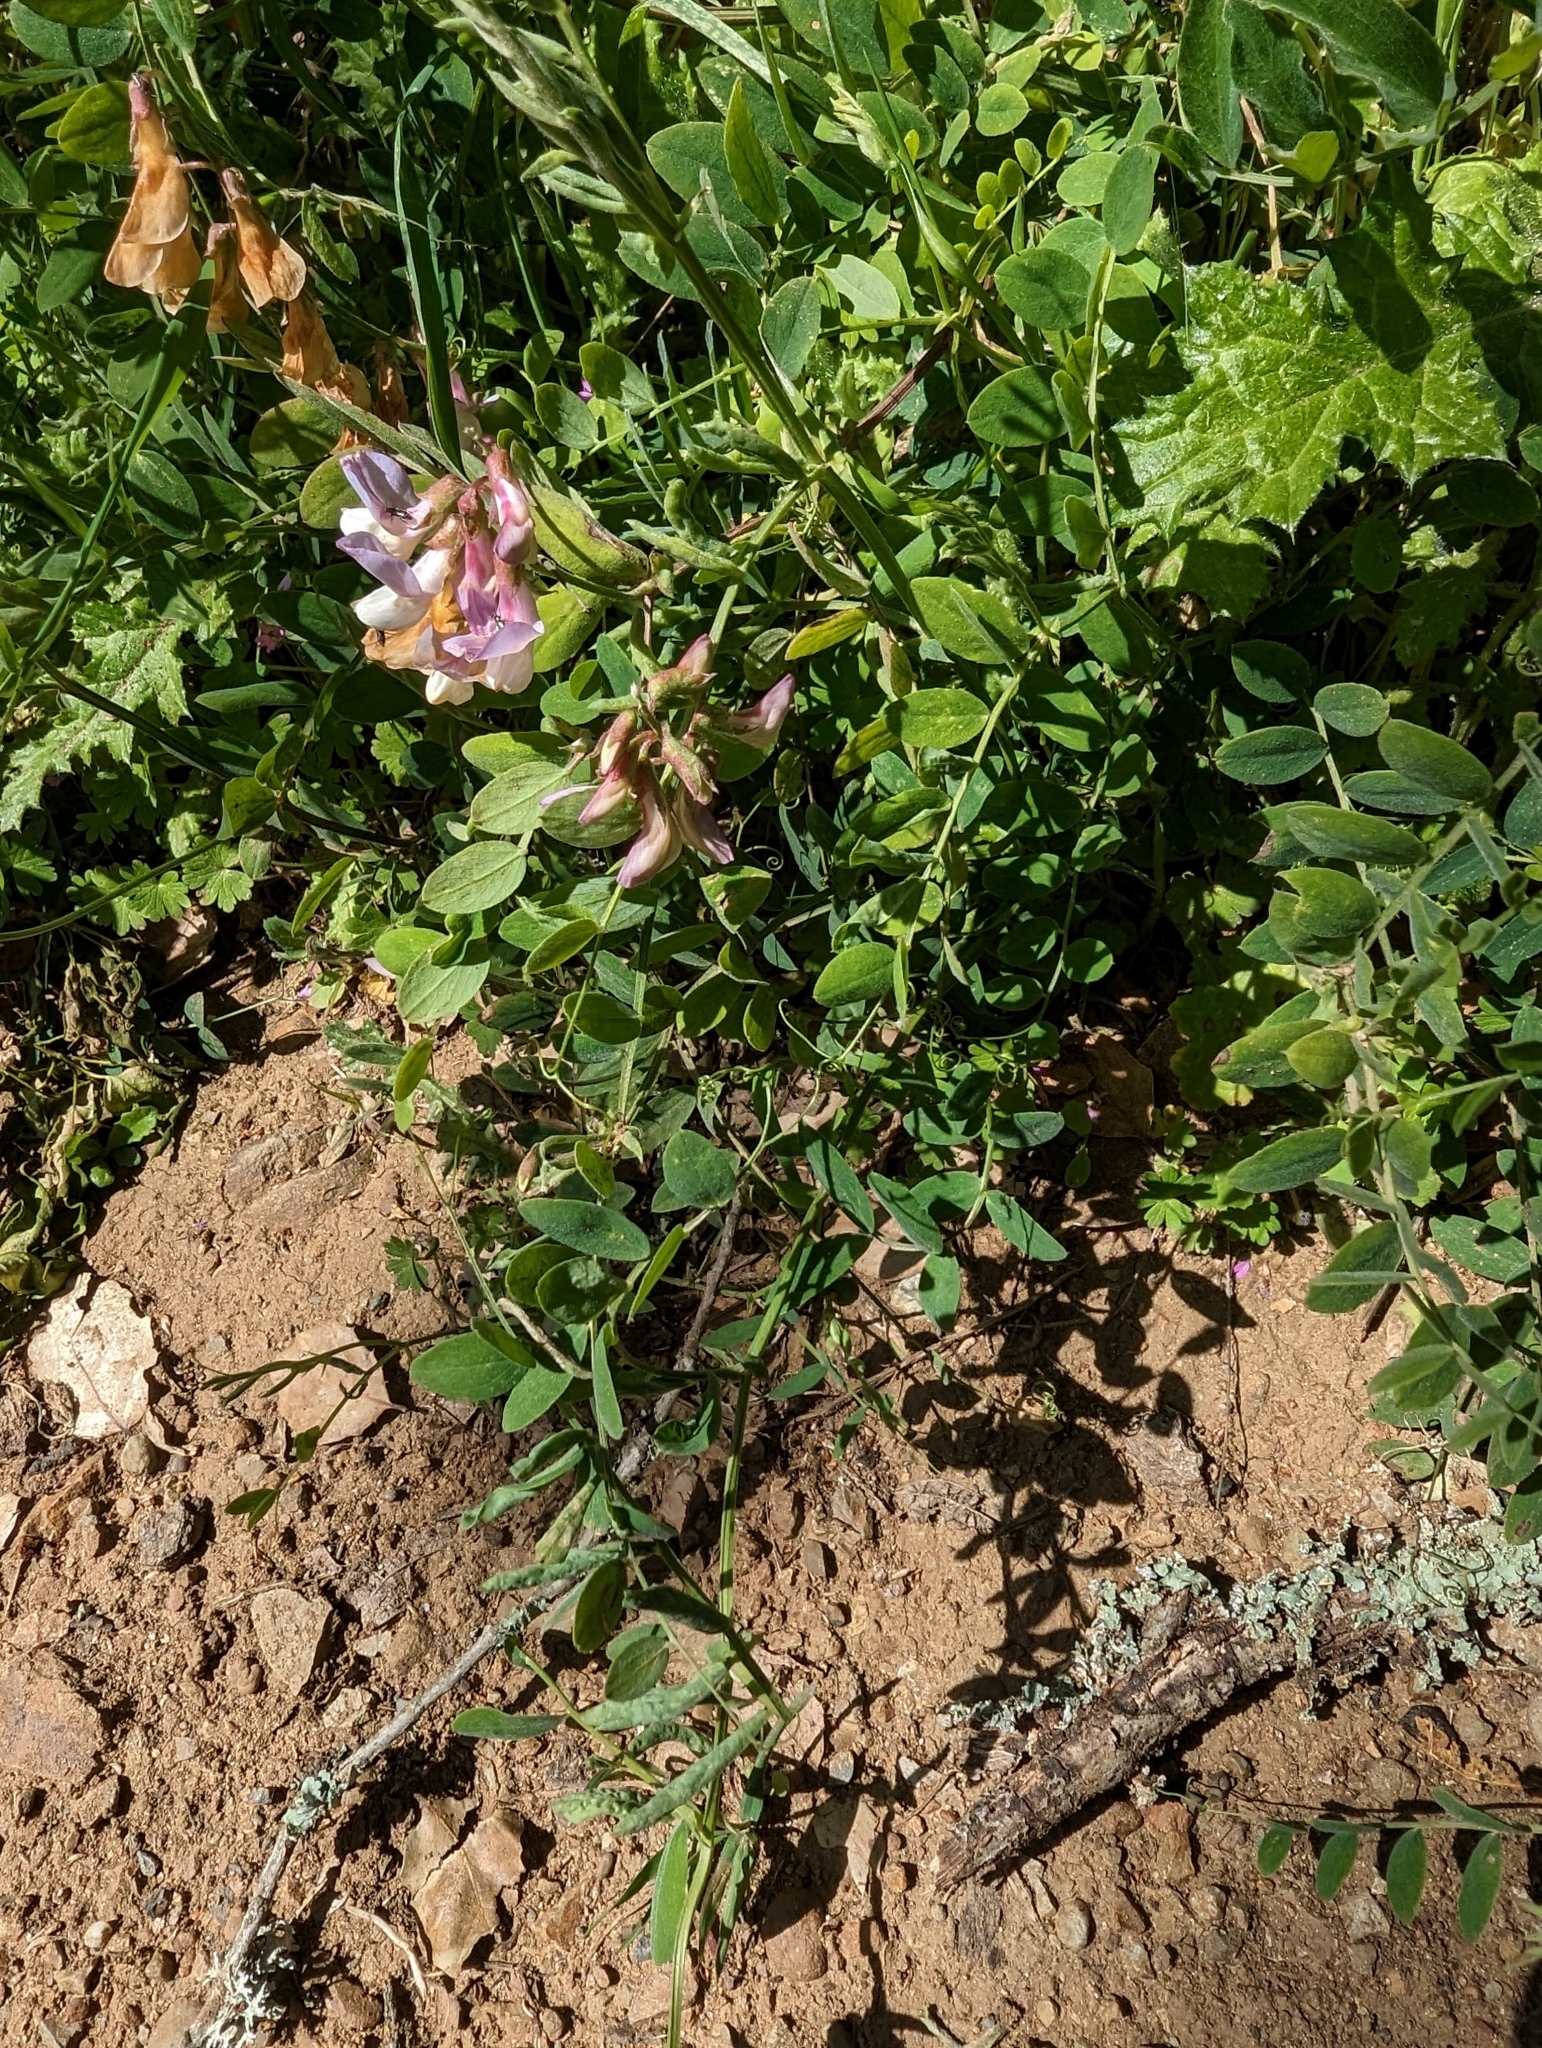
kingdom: Plantae
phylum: Tracheophyta
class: Magnoliopsida
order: Fabales
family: Fabaceae
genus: Lathyrus
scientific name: Lathyrus vestitus
